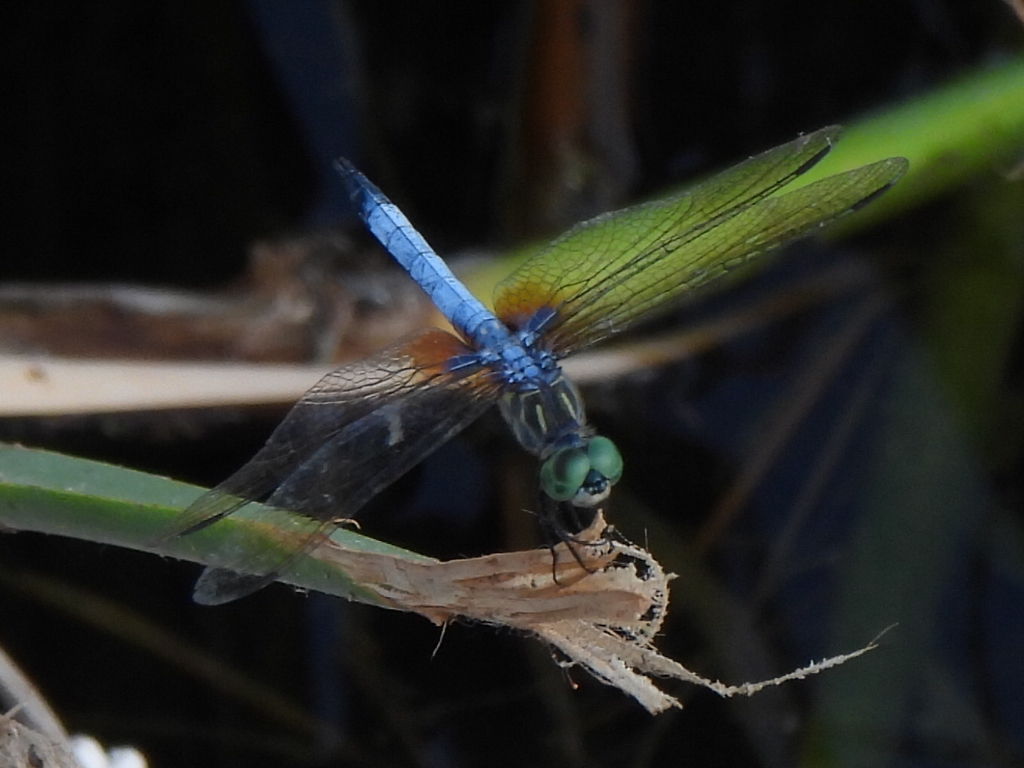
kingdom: Animalia
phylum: Arthropoda
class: Insecta
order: Odonata
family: Libellulidae
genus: Pachydiplax
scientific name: Pachydiplax longipennis
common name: Blue dasher
